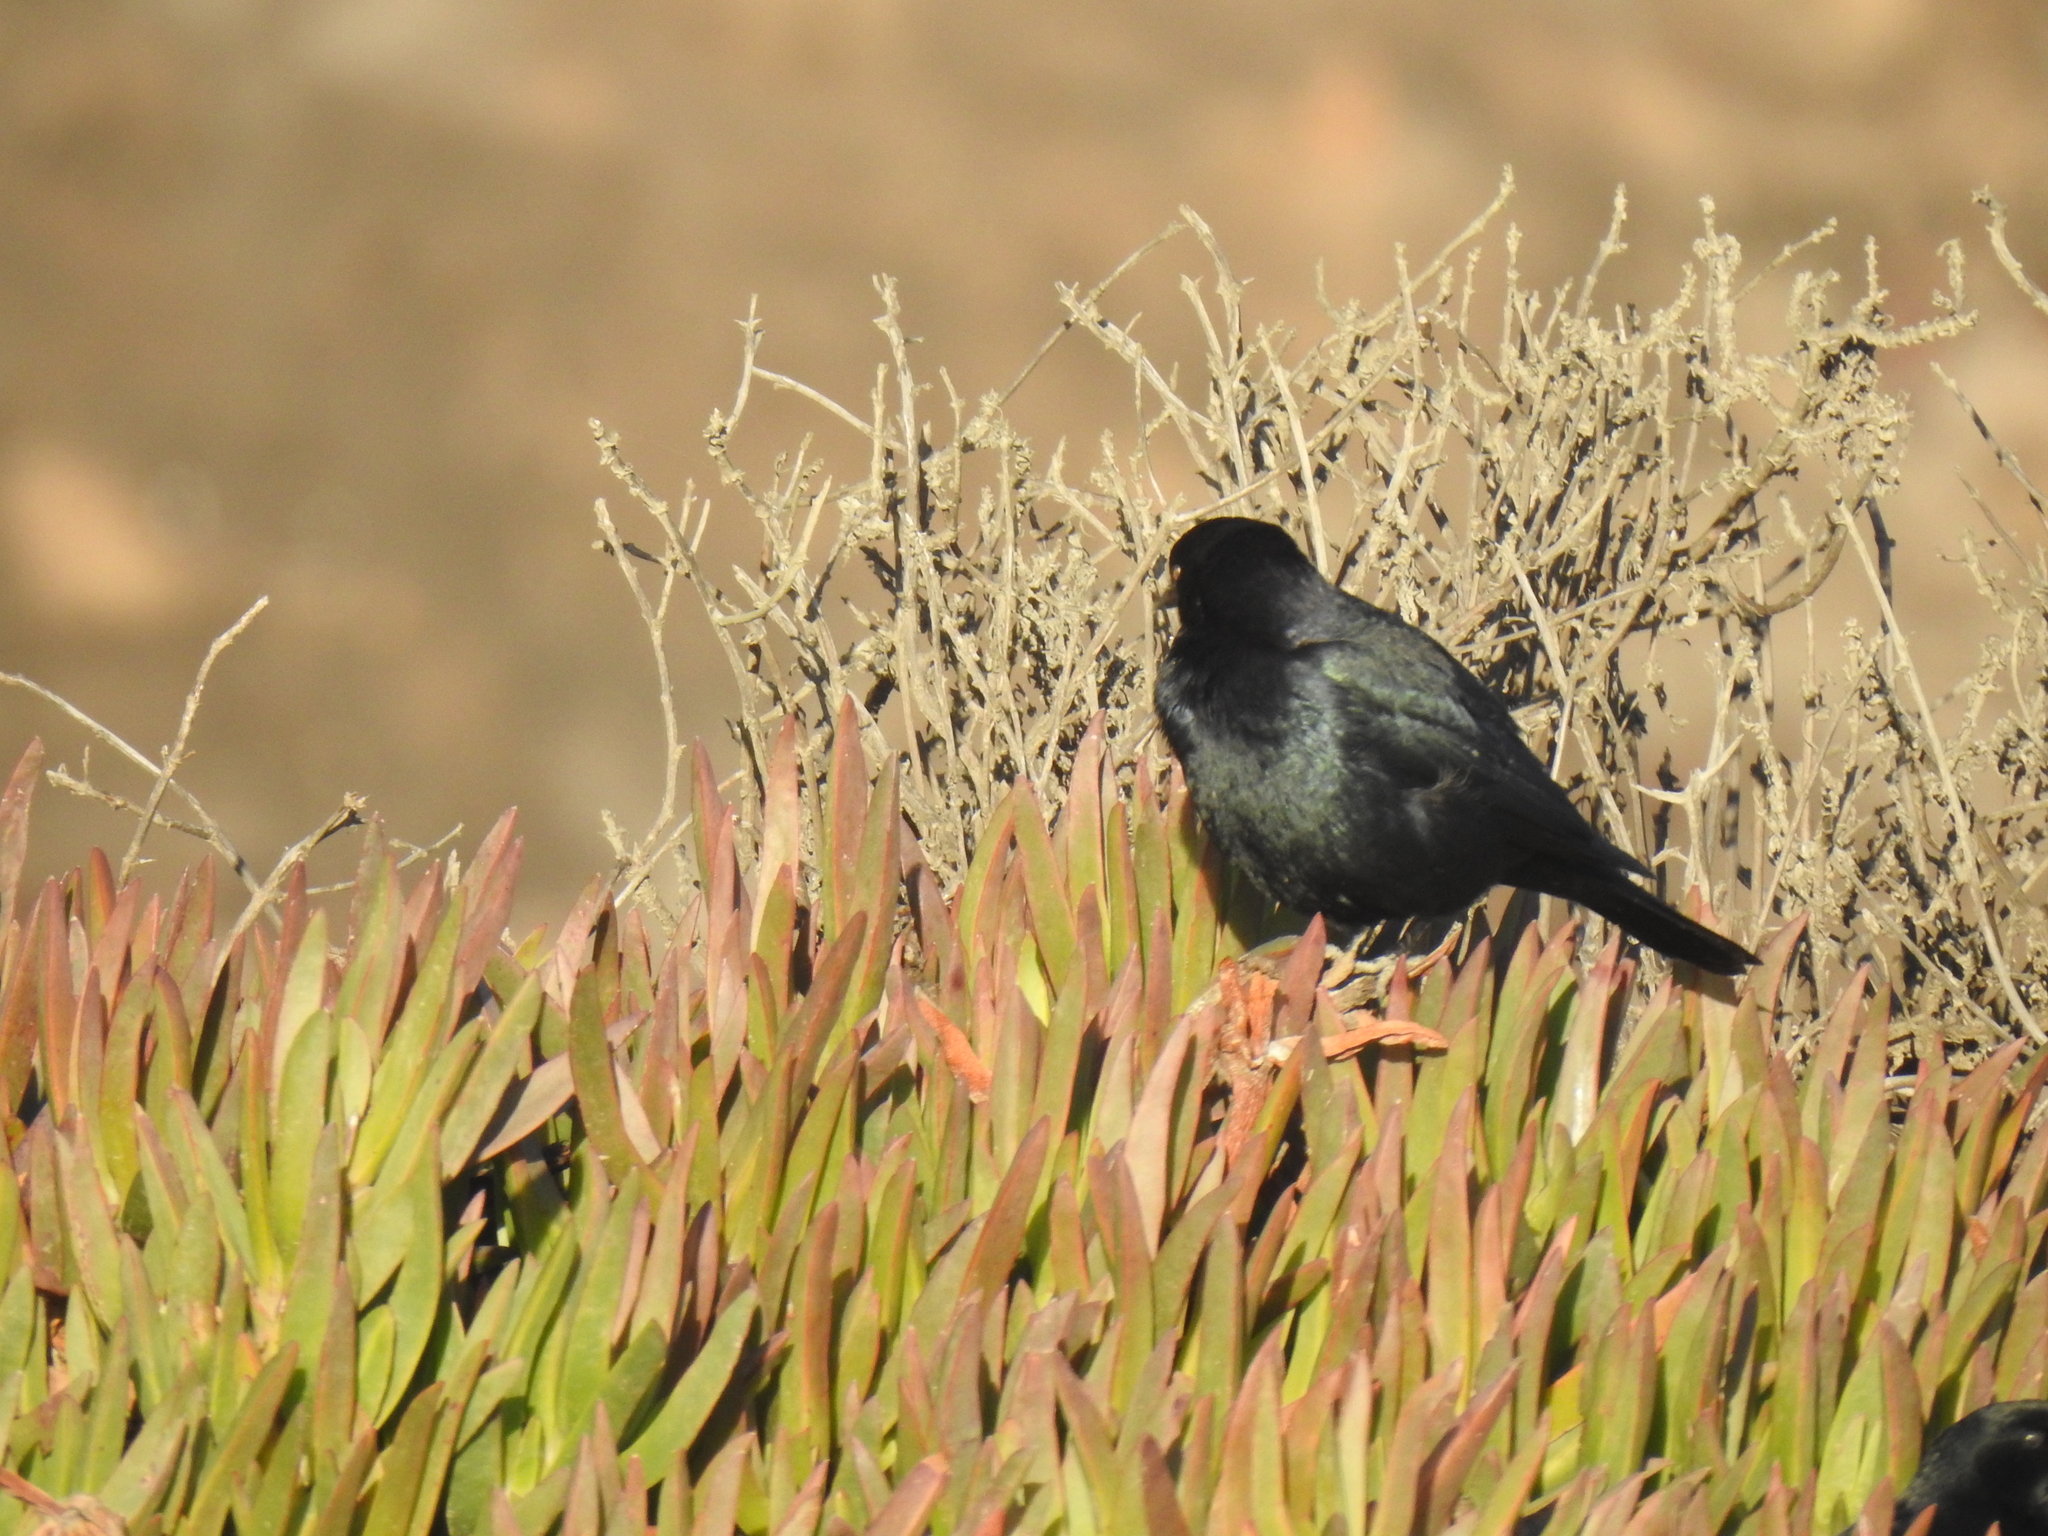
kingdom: Animalia
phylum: Chordata
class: Aves
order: Passeriformes
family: Icteridae
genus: Euphagus
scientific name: Euphagus cyanocephalus
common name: Brewer's blackbird
